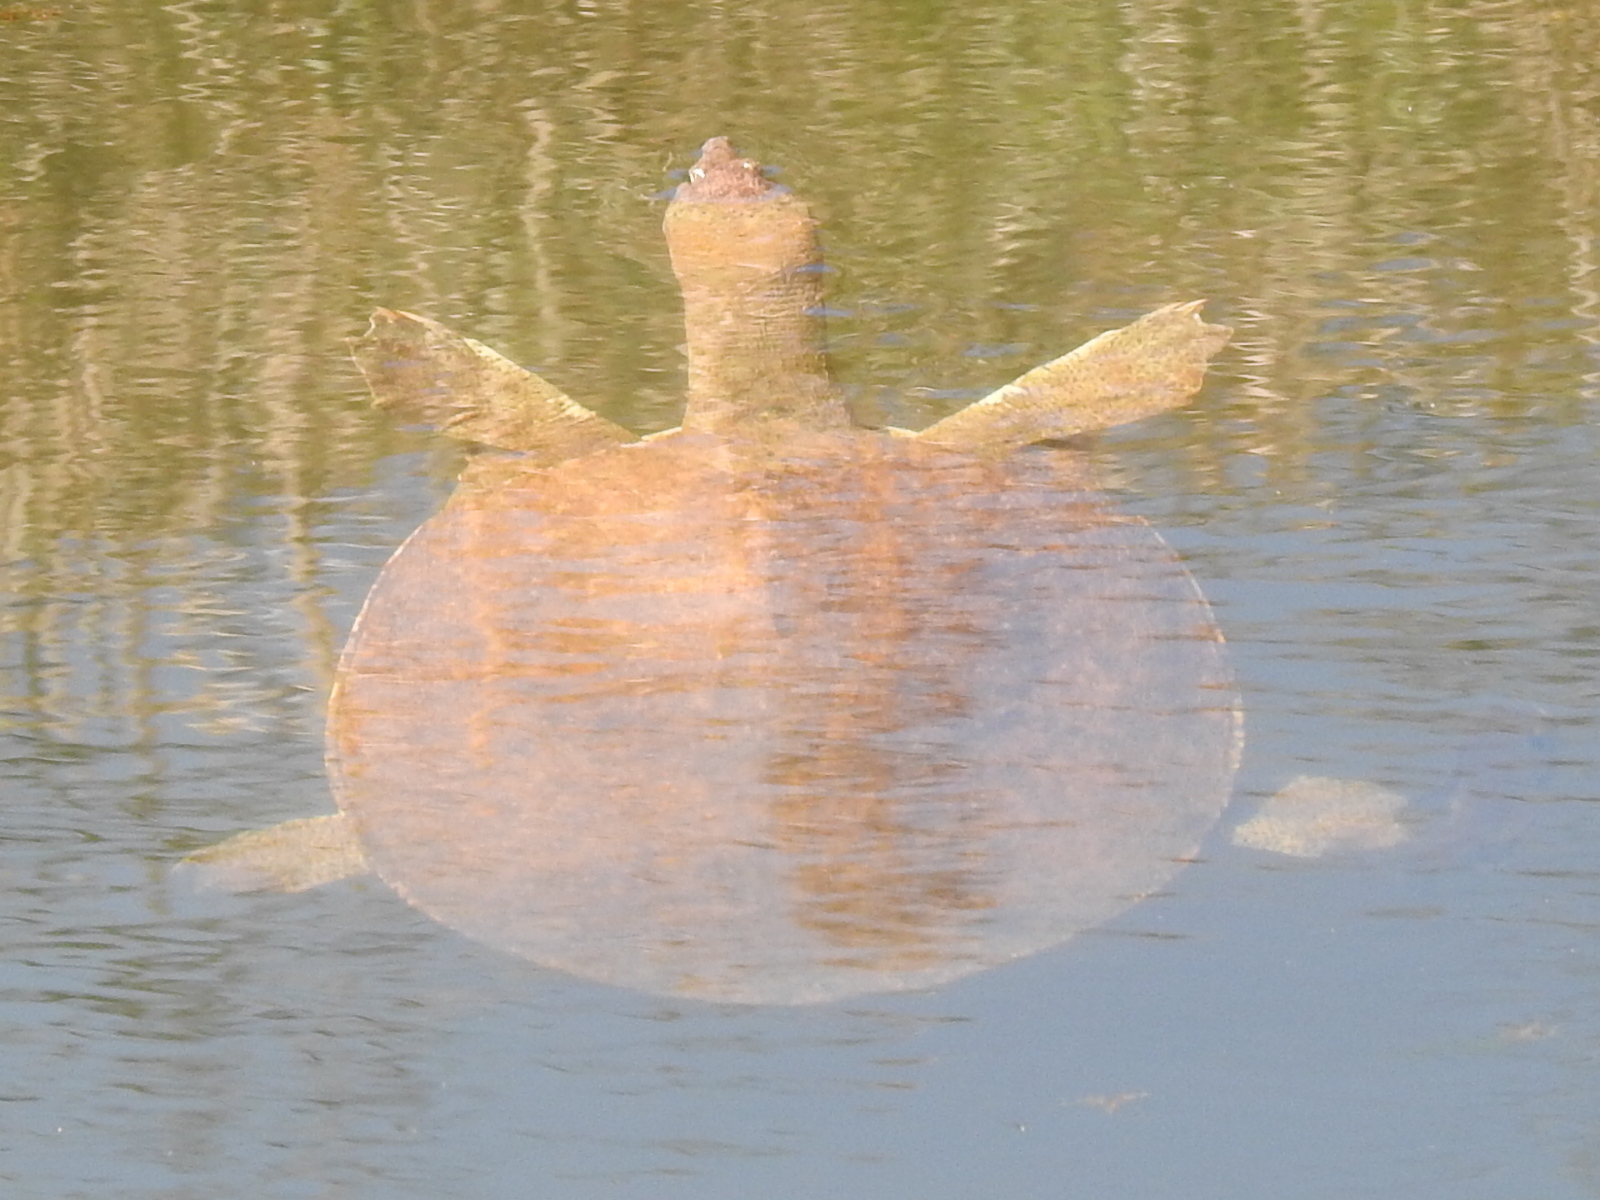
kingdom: Animalia
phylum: Chordata
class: Testudines
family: Trionychidae
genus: Apalone
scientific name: Apalone spinifera
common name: Spiny softshell turtle
